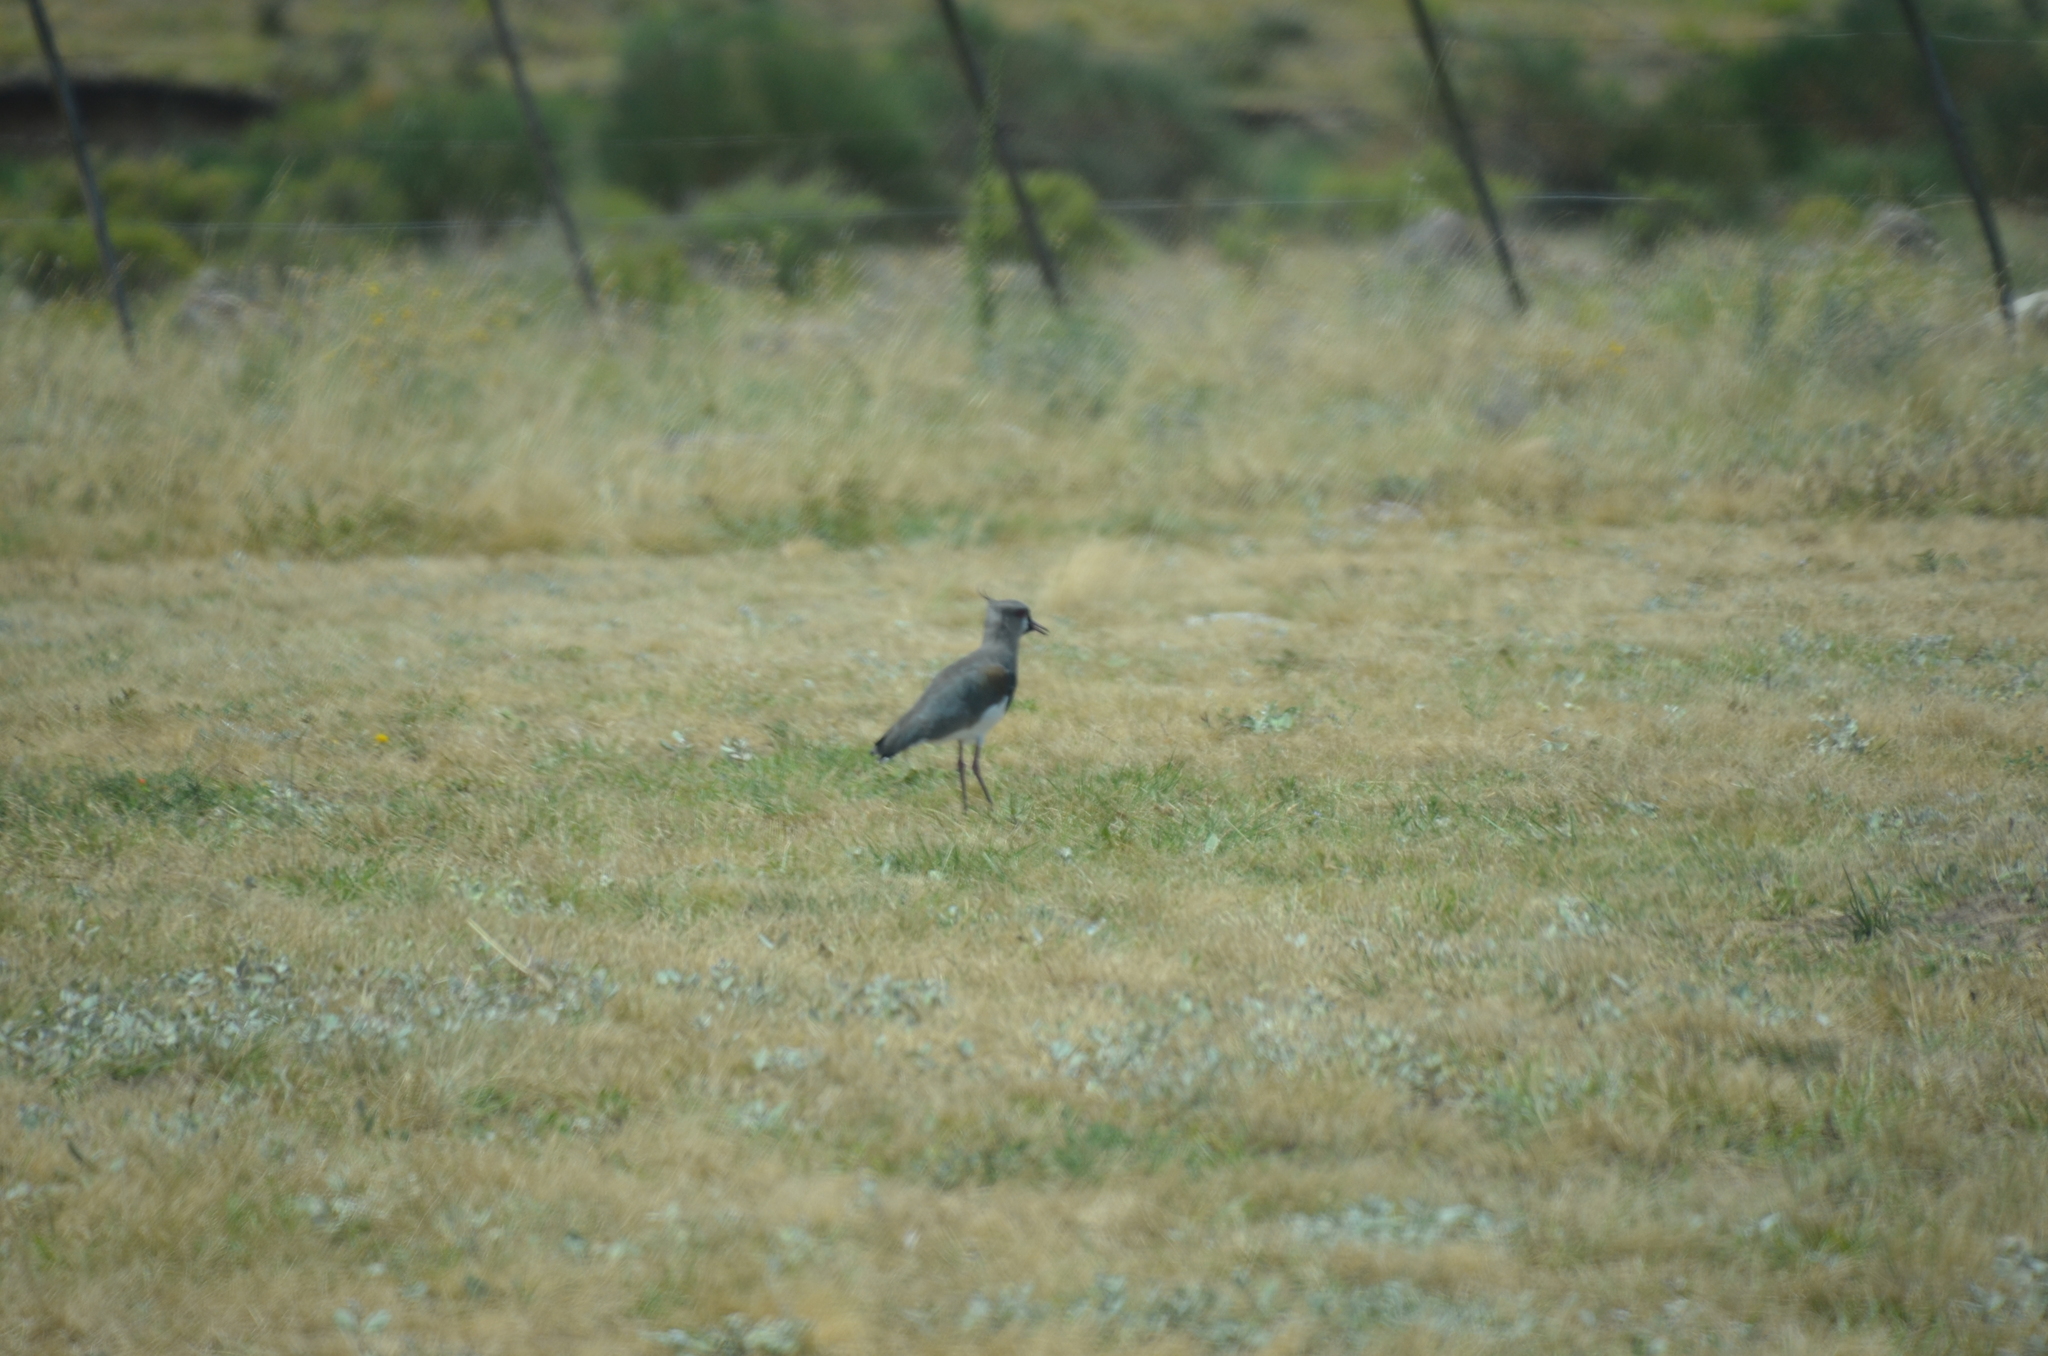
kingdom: Animalia
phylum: Chordata
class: Aves
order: Charadriiformes
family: Charadriidae
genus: Vanellus
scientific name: Vanellus chilensis
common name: Southern lapwing
